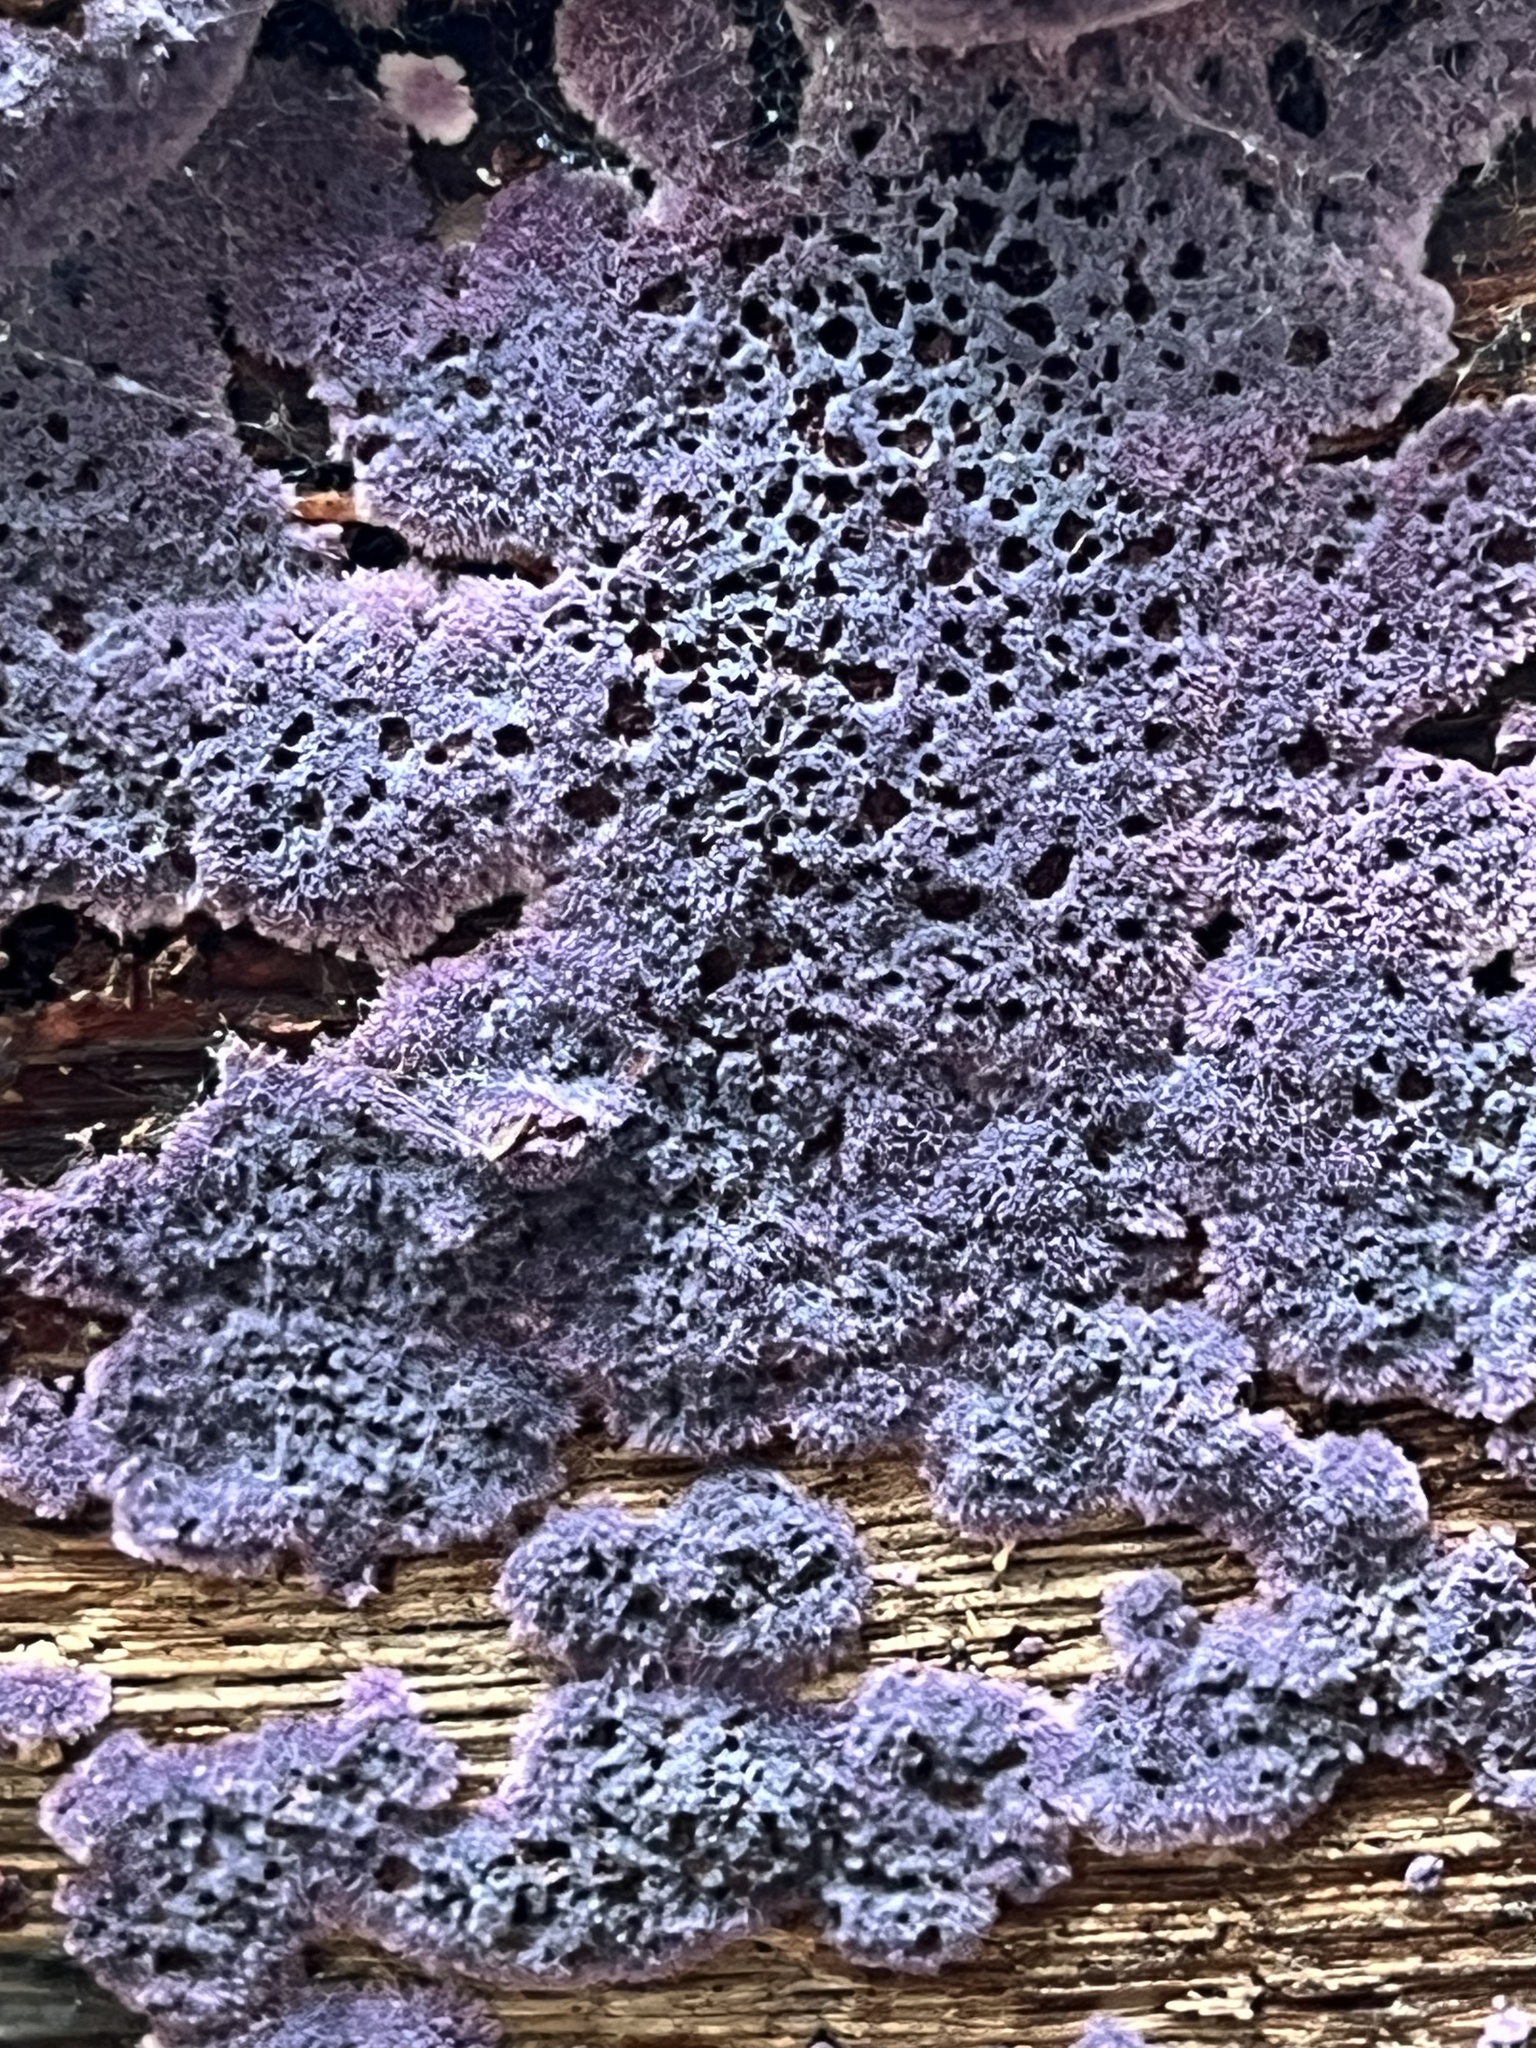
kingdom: Fungi
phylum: Basidiomycota
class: Agaricomycetes
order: Corticiales
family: Punctulariaceae
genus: Punctularia
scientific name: Punctularia atropurpurascens
